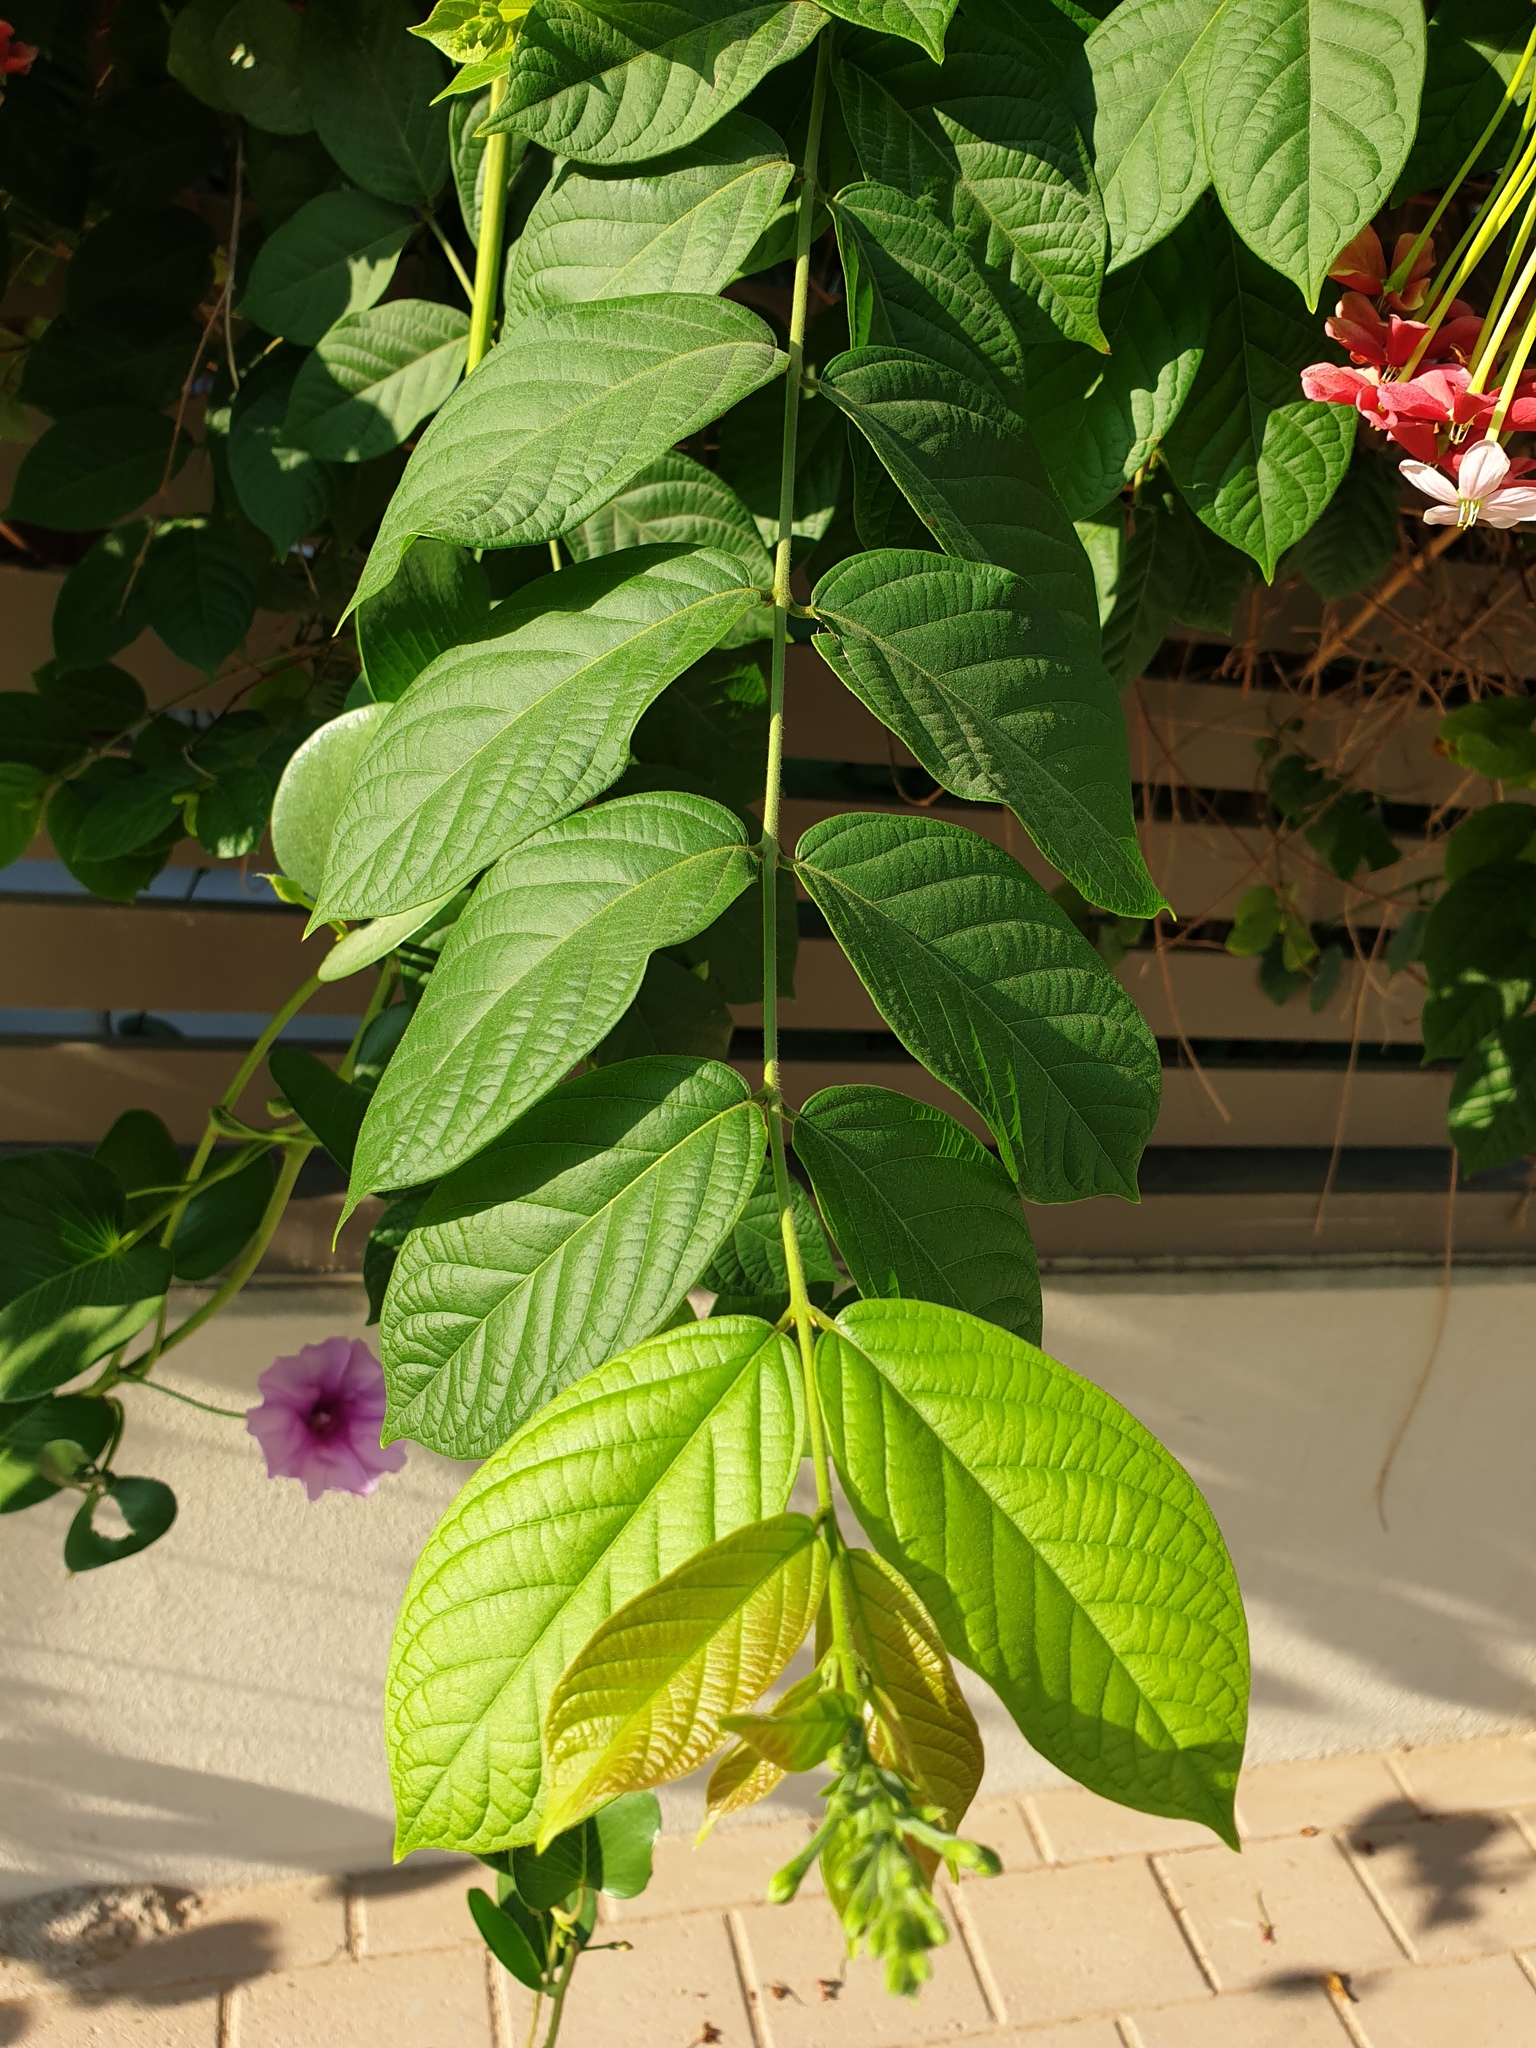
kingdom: Plantae
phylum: Tracheophyta
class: Magnoliopsida
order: Myrtales
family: Combretaceae
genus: Combretum
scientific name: Combretum indicum
